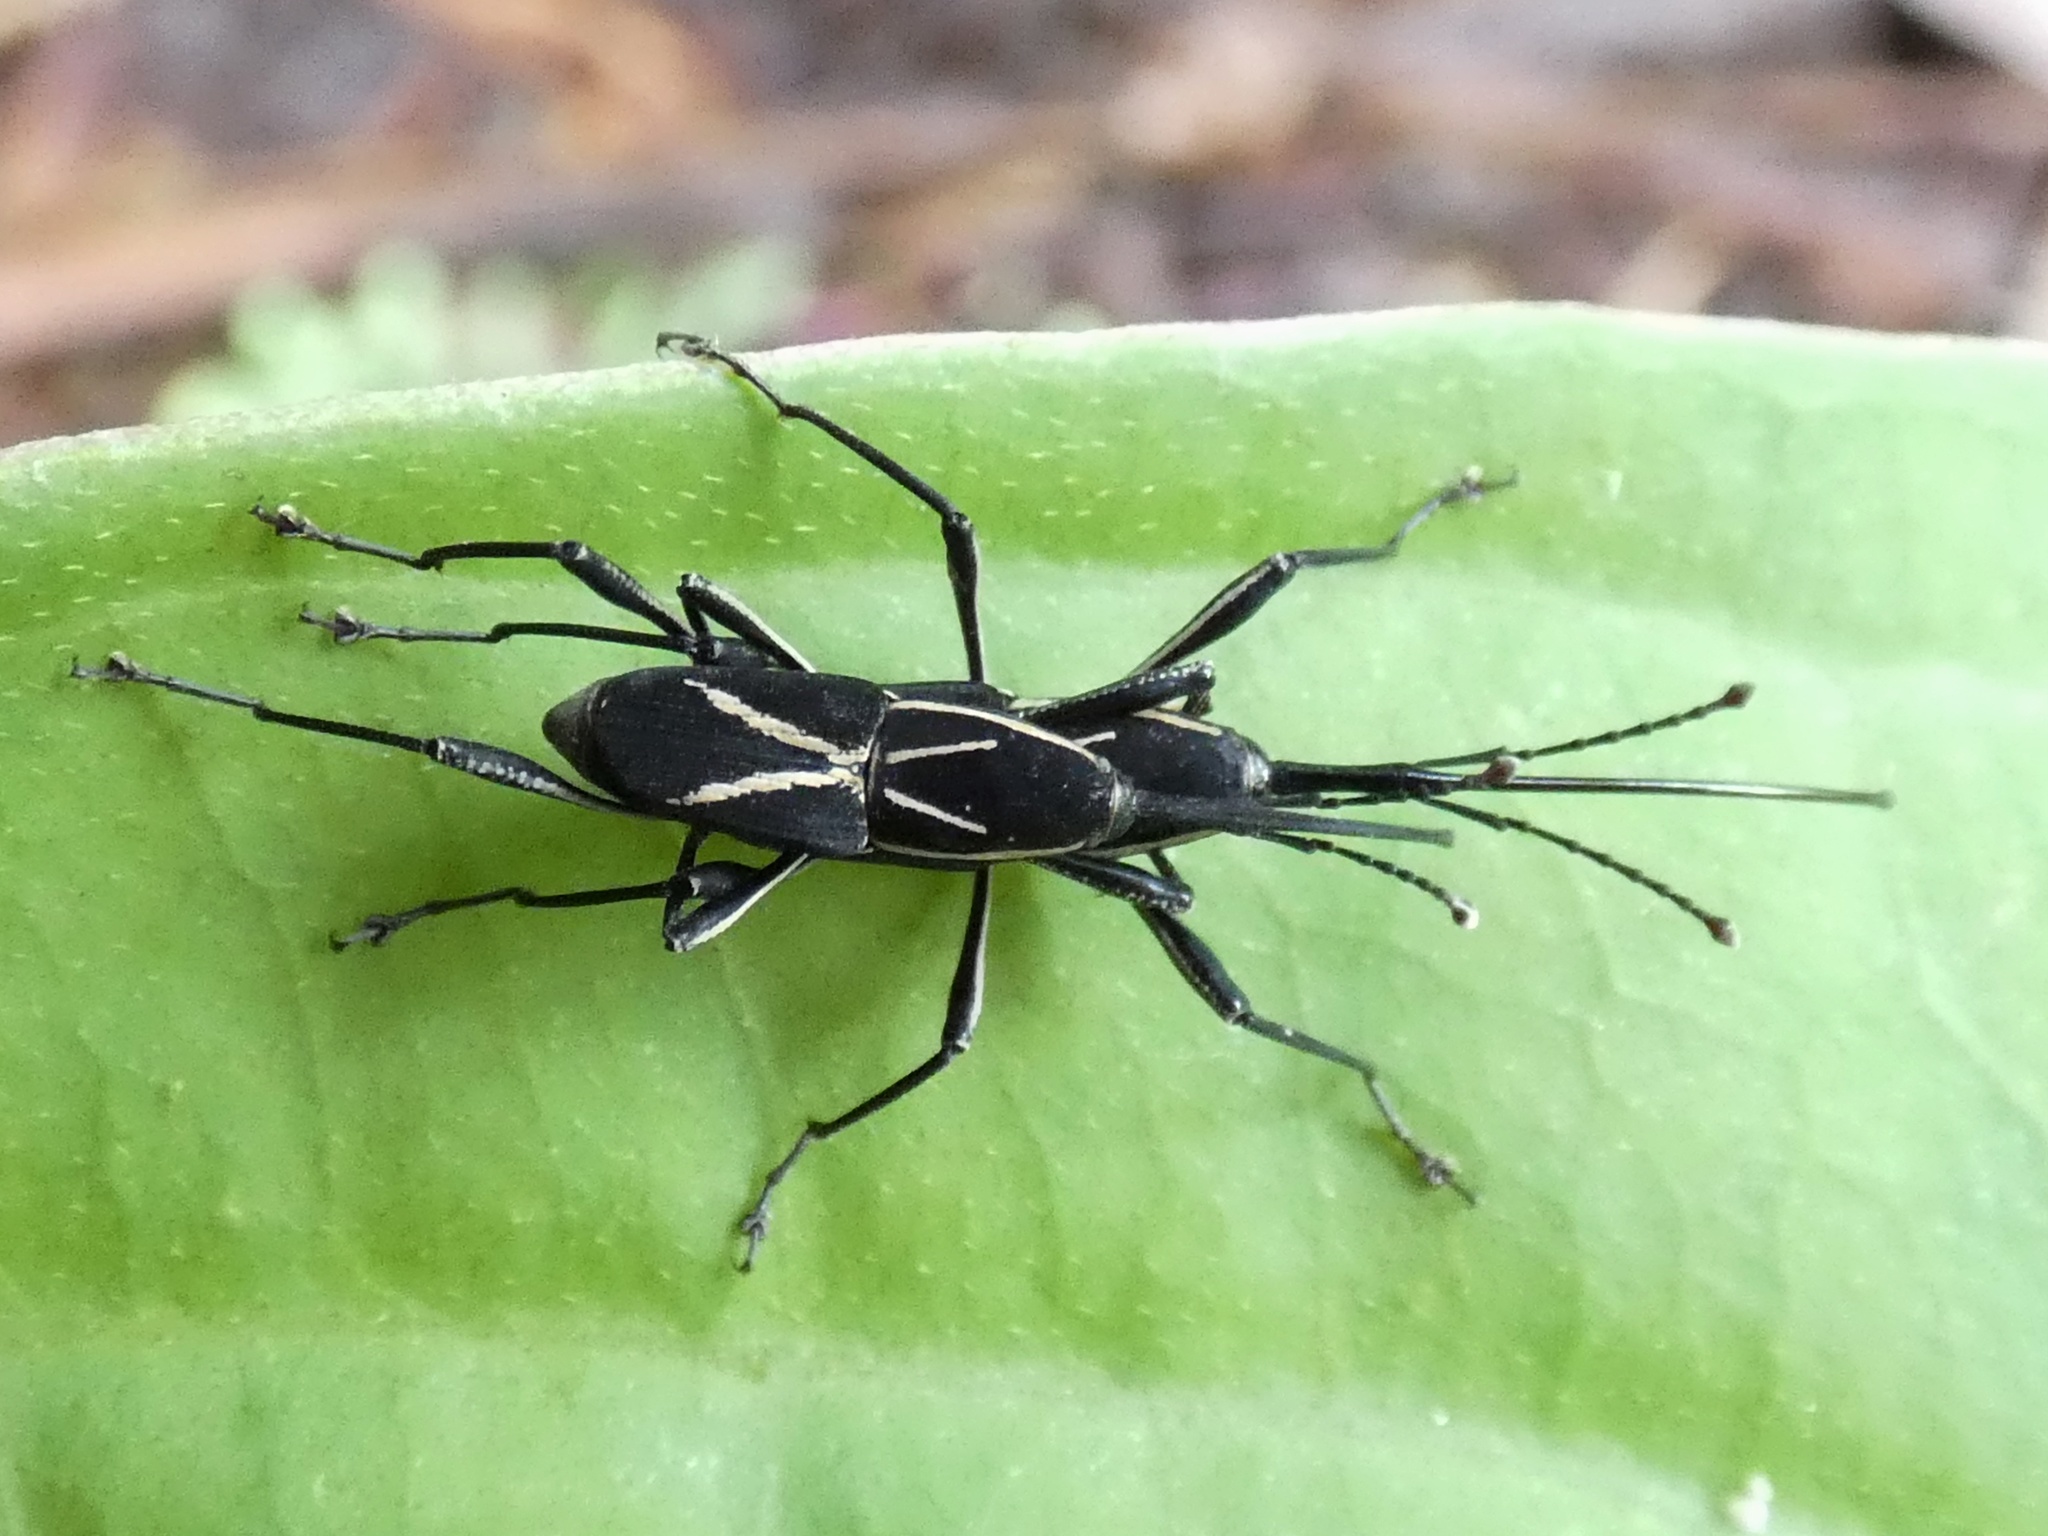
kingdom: Animalia
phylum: Arthropoda
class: Insecta
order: Coleoptera
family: Dryophthoridae
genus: Sitophilus
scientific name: Sitophilus banonii
